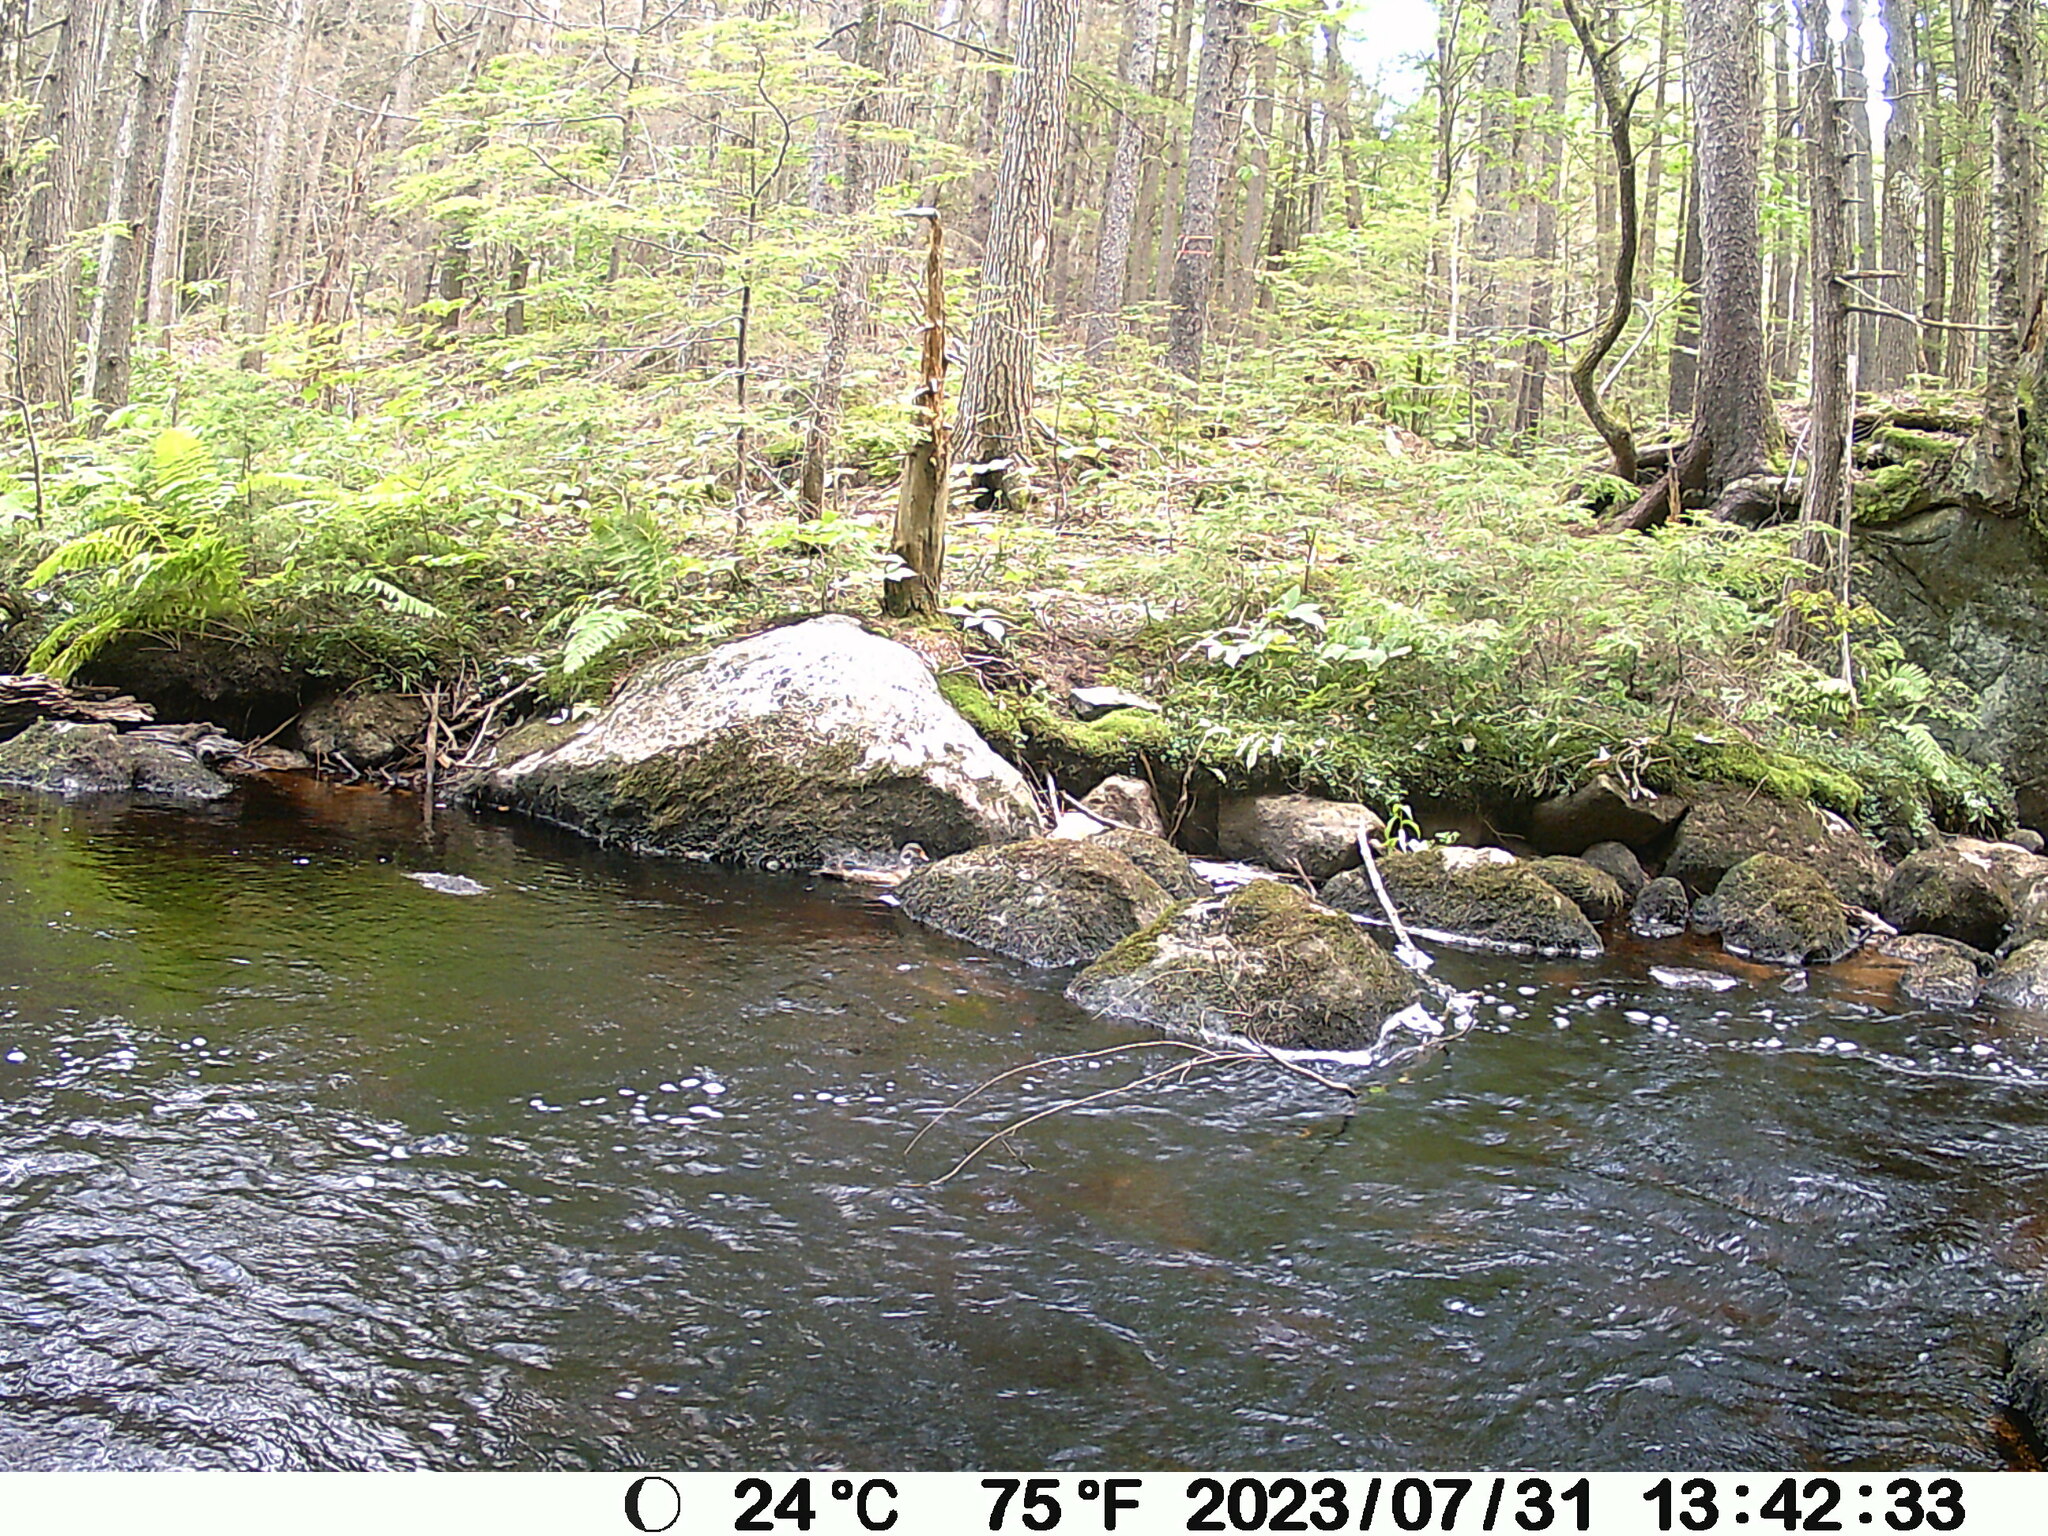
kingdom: Animalia
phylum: Chordata
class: Aves
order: Anseriformes
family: Anatidae
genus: Aix
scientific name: Aix sponsa
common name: Wood duck
